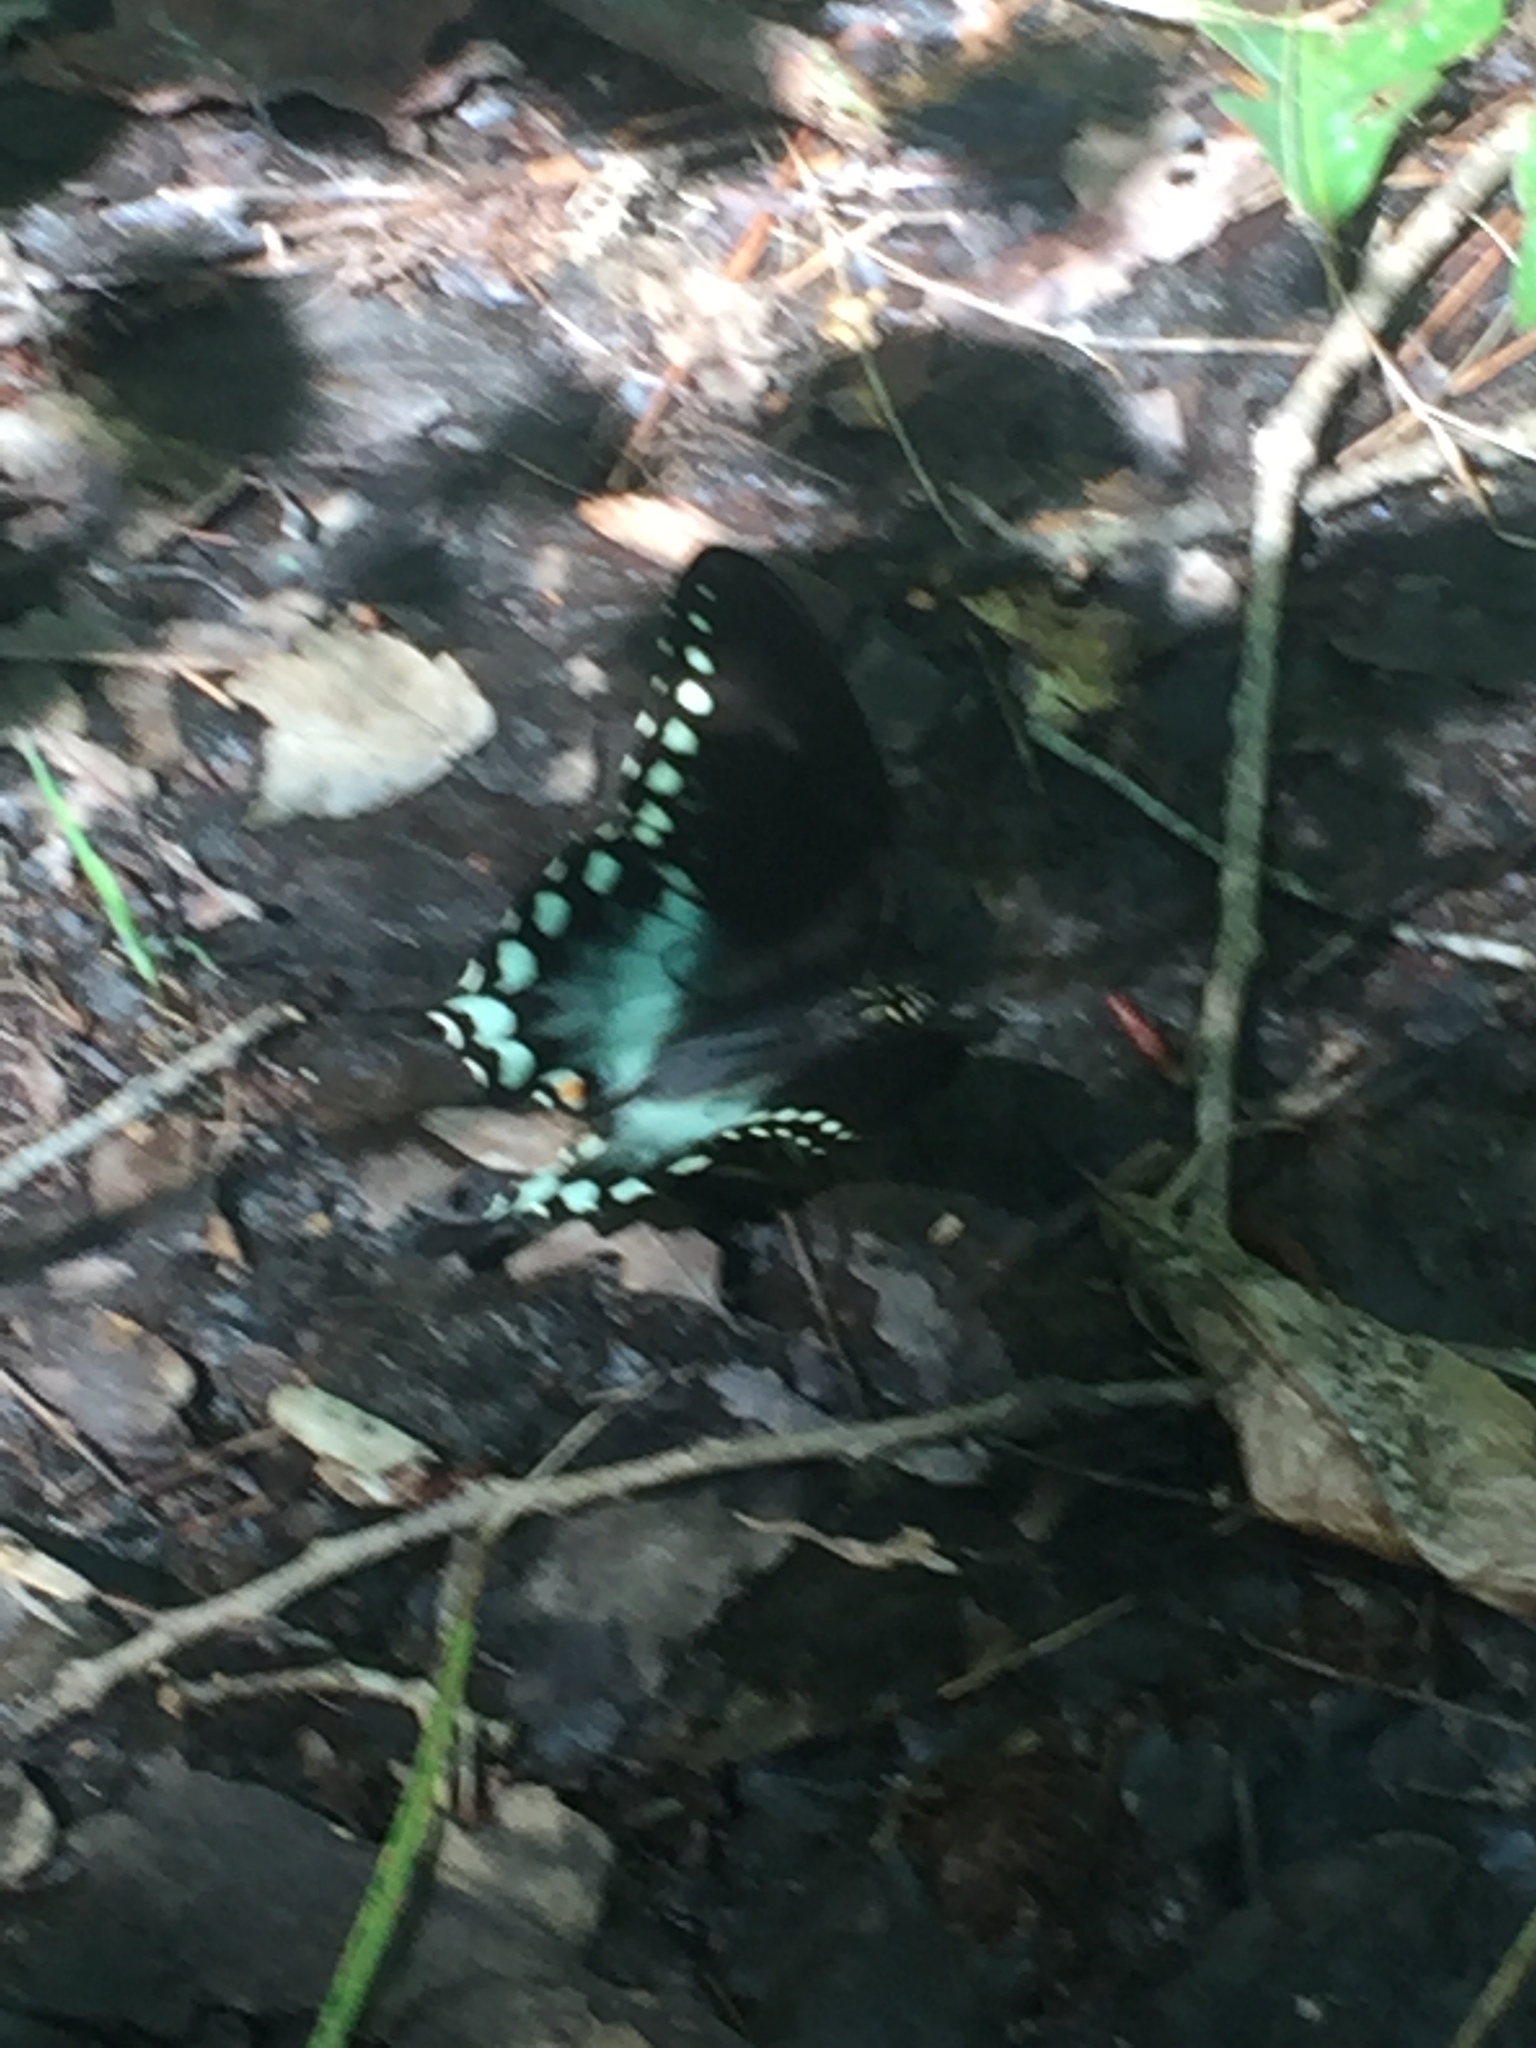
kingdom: Animalia
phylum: Arthropoda
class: Insecta
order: Lepidoptera
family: Papilionidae
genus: Papilio
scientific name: Papilio troilus
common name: Spicebush swallowtail
